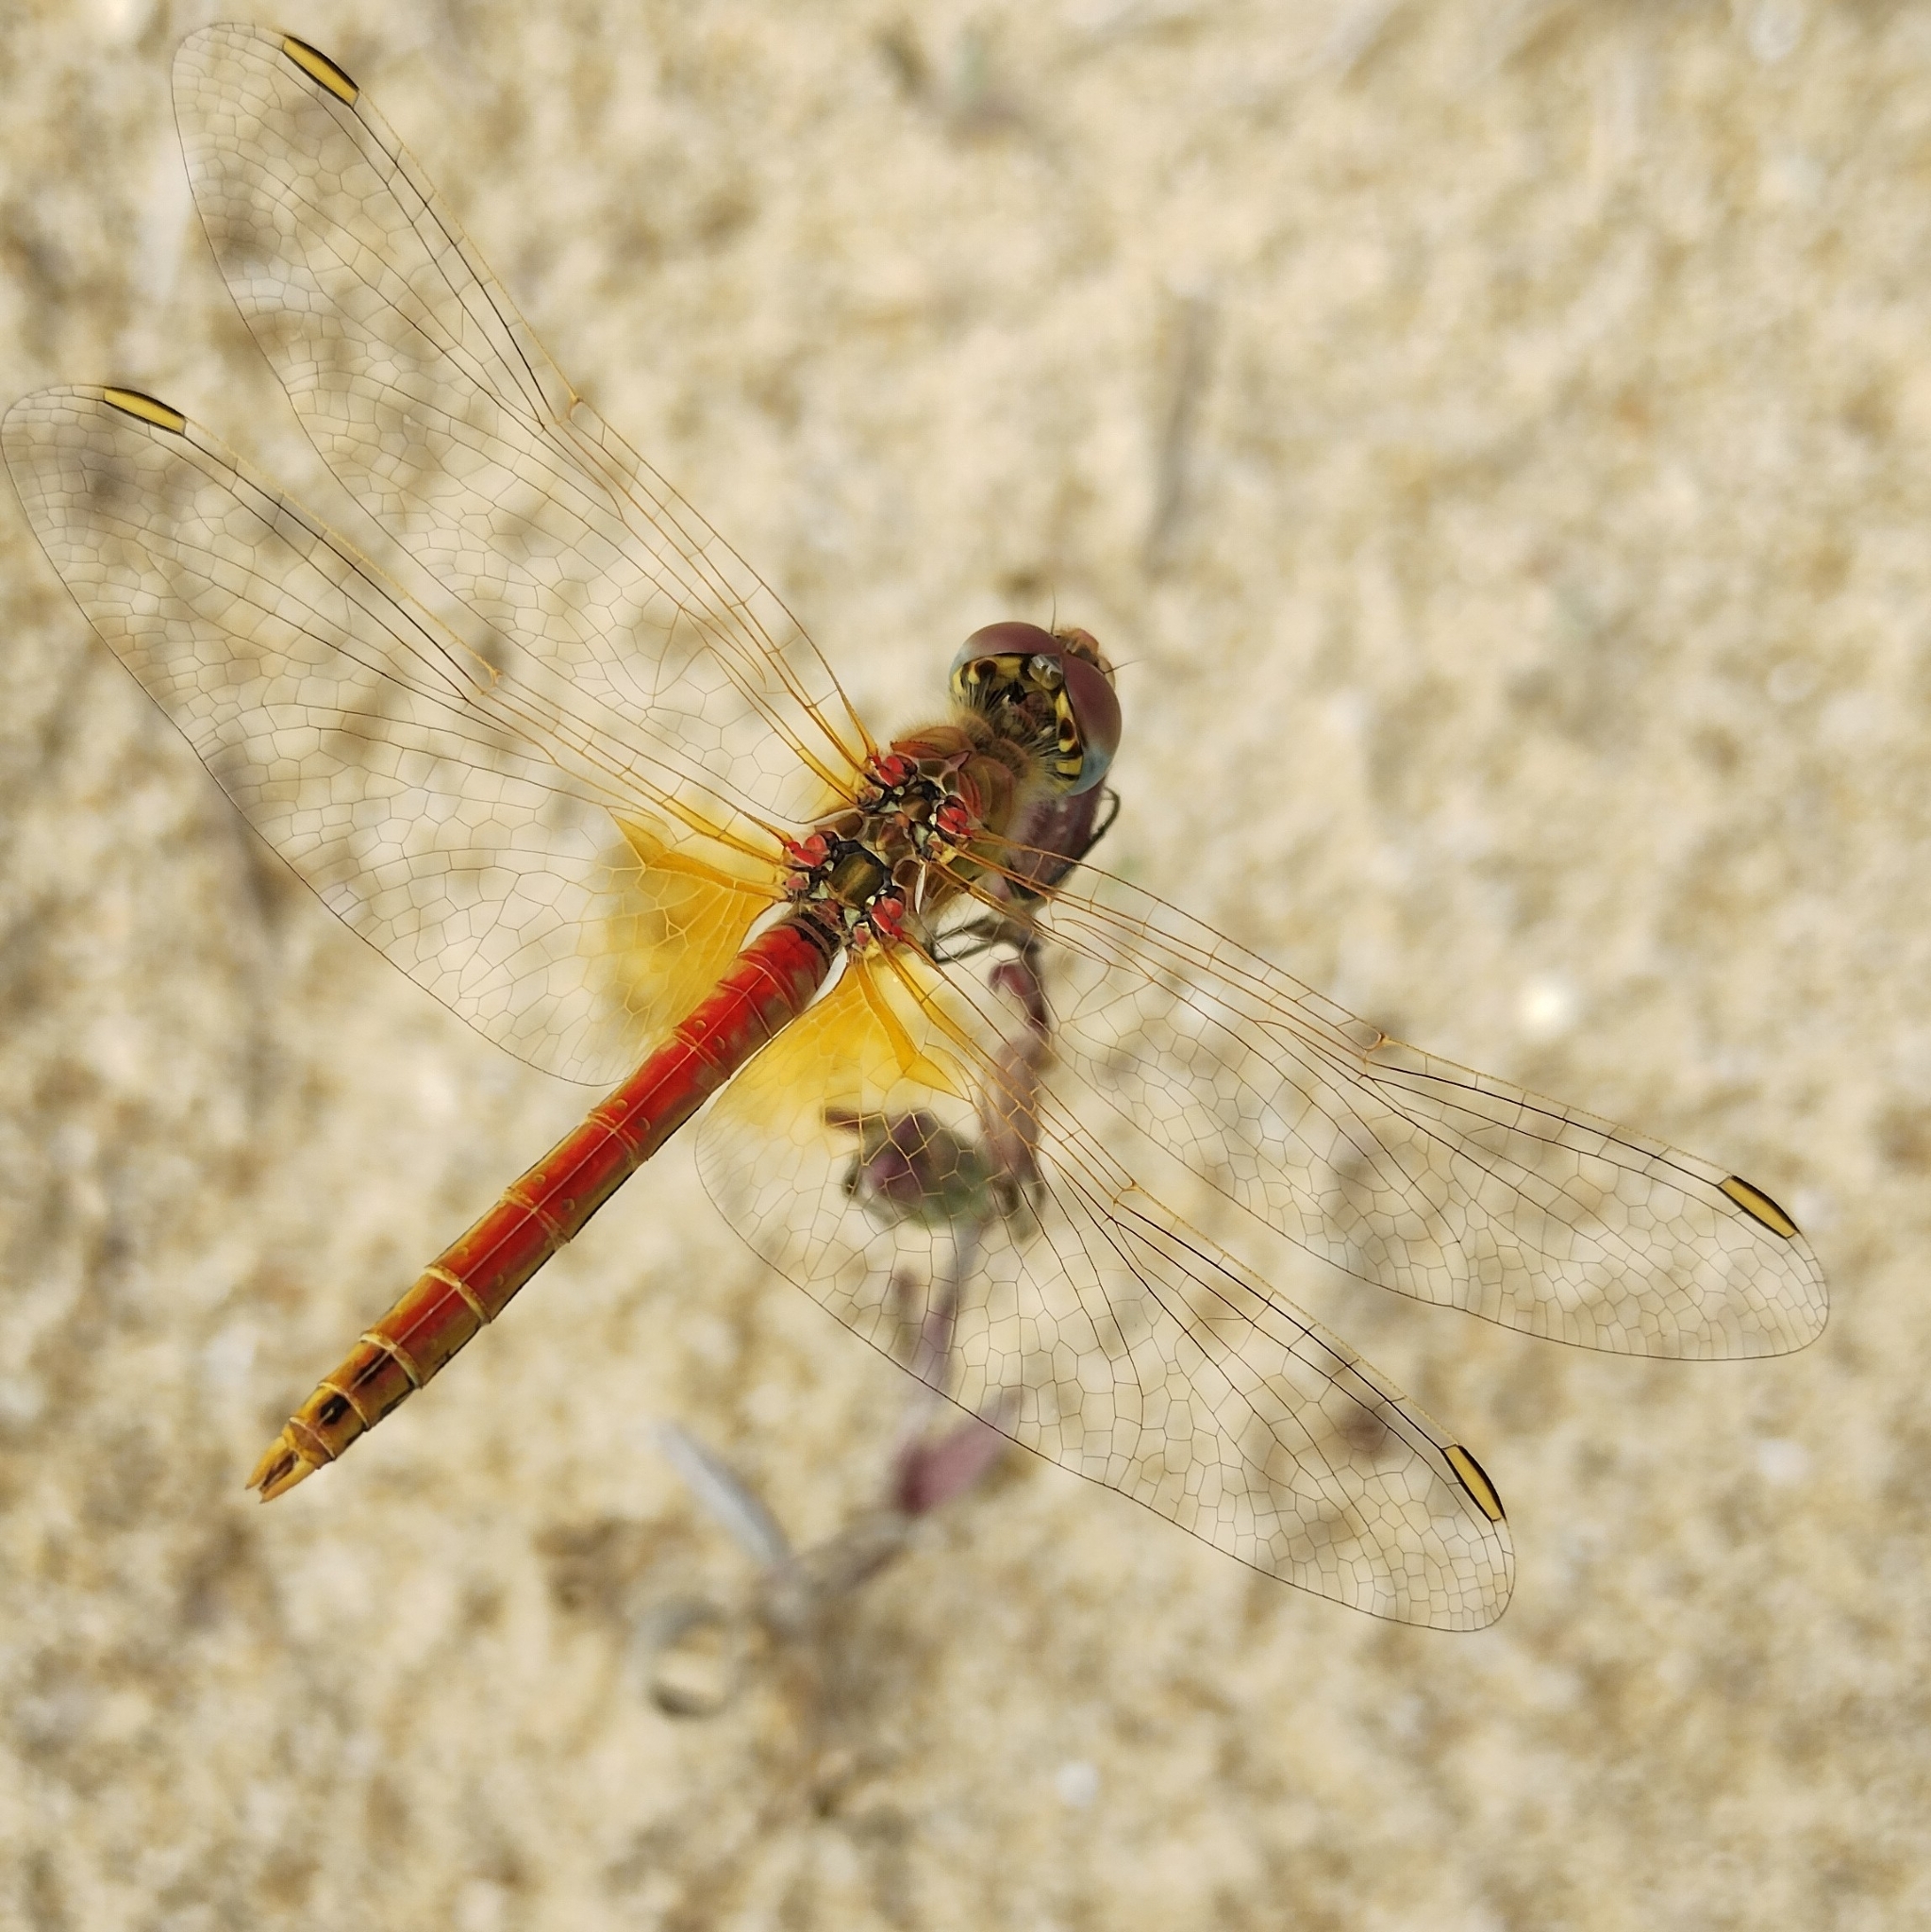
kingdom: Animalia
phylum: Arthropoda
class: Insecta
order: Odonata
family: Libellulidae
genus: Sympetrum
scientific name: Sympetrum fonscolombii
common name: Red-veined darter
